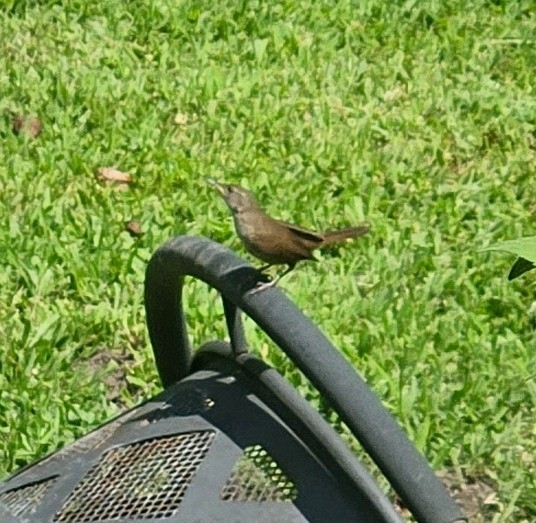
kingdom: Animalia
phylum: Chordata
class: Aves
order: Passeriformes
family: Troglodytidae
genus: Troglodytes
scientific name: Troglodytes aedon
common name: House wren
